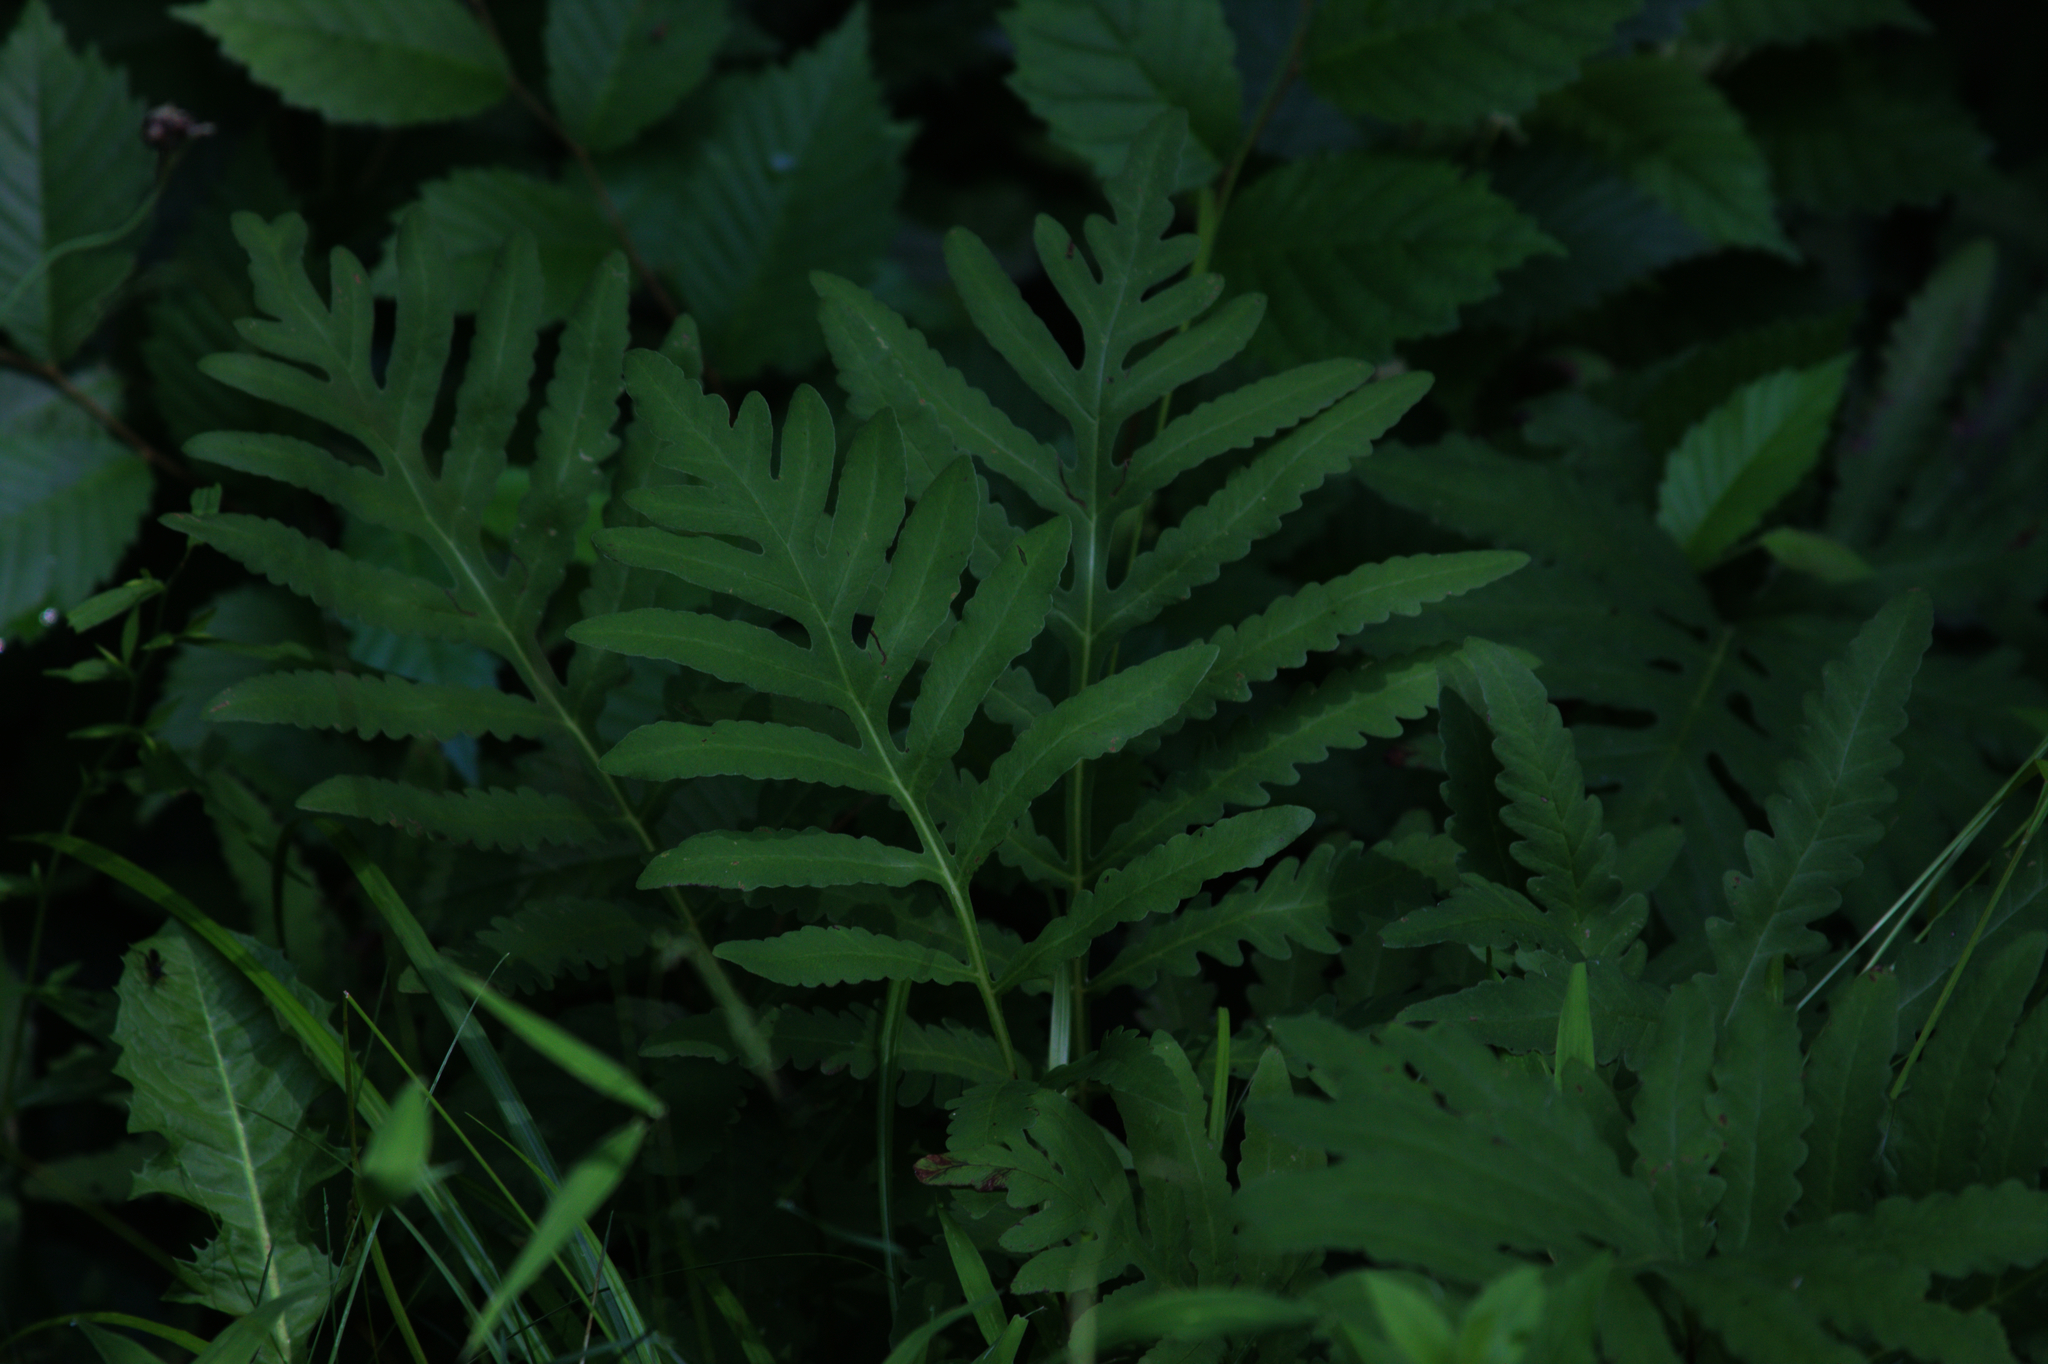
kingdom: Plantae
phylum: Tracheophyta
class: Polypodiopsida
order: Polypodiales
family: Onocleaceae
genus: Onoclea
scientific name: Onoclea sensibilis
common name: Sensitive fern
